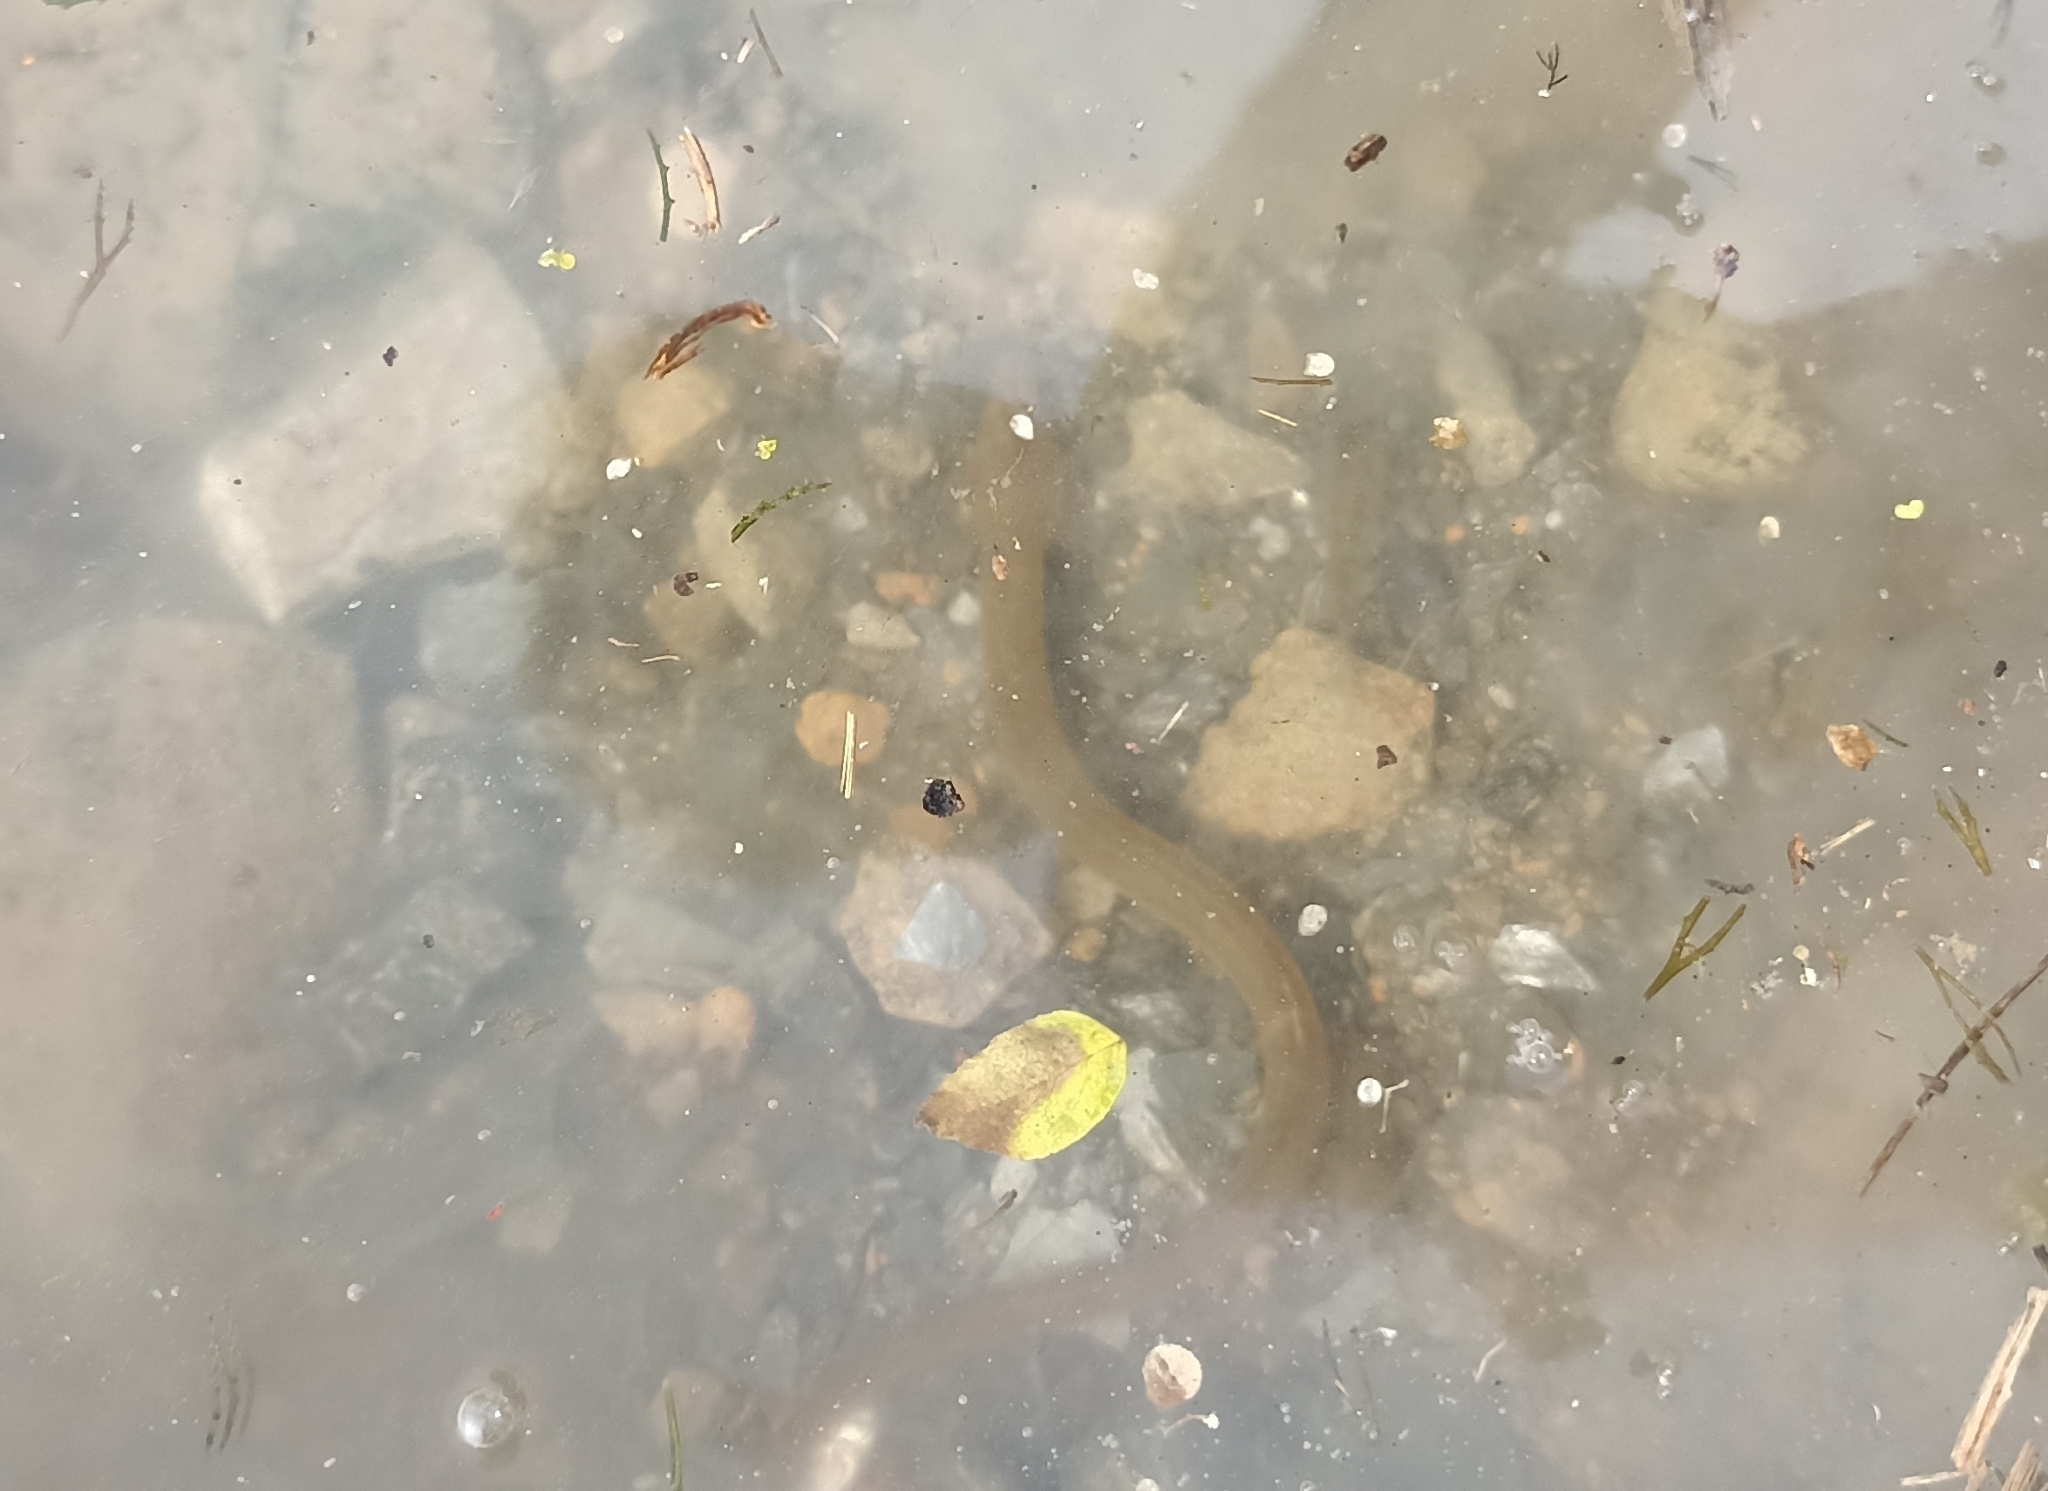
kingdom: Animalia
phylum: Chordata
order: Anguilliformes
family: Anguillidae
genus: Anguilla
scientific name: Anguilla anguilla
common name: European eel
